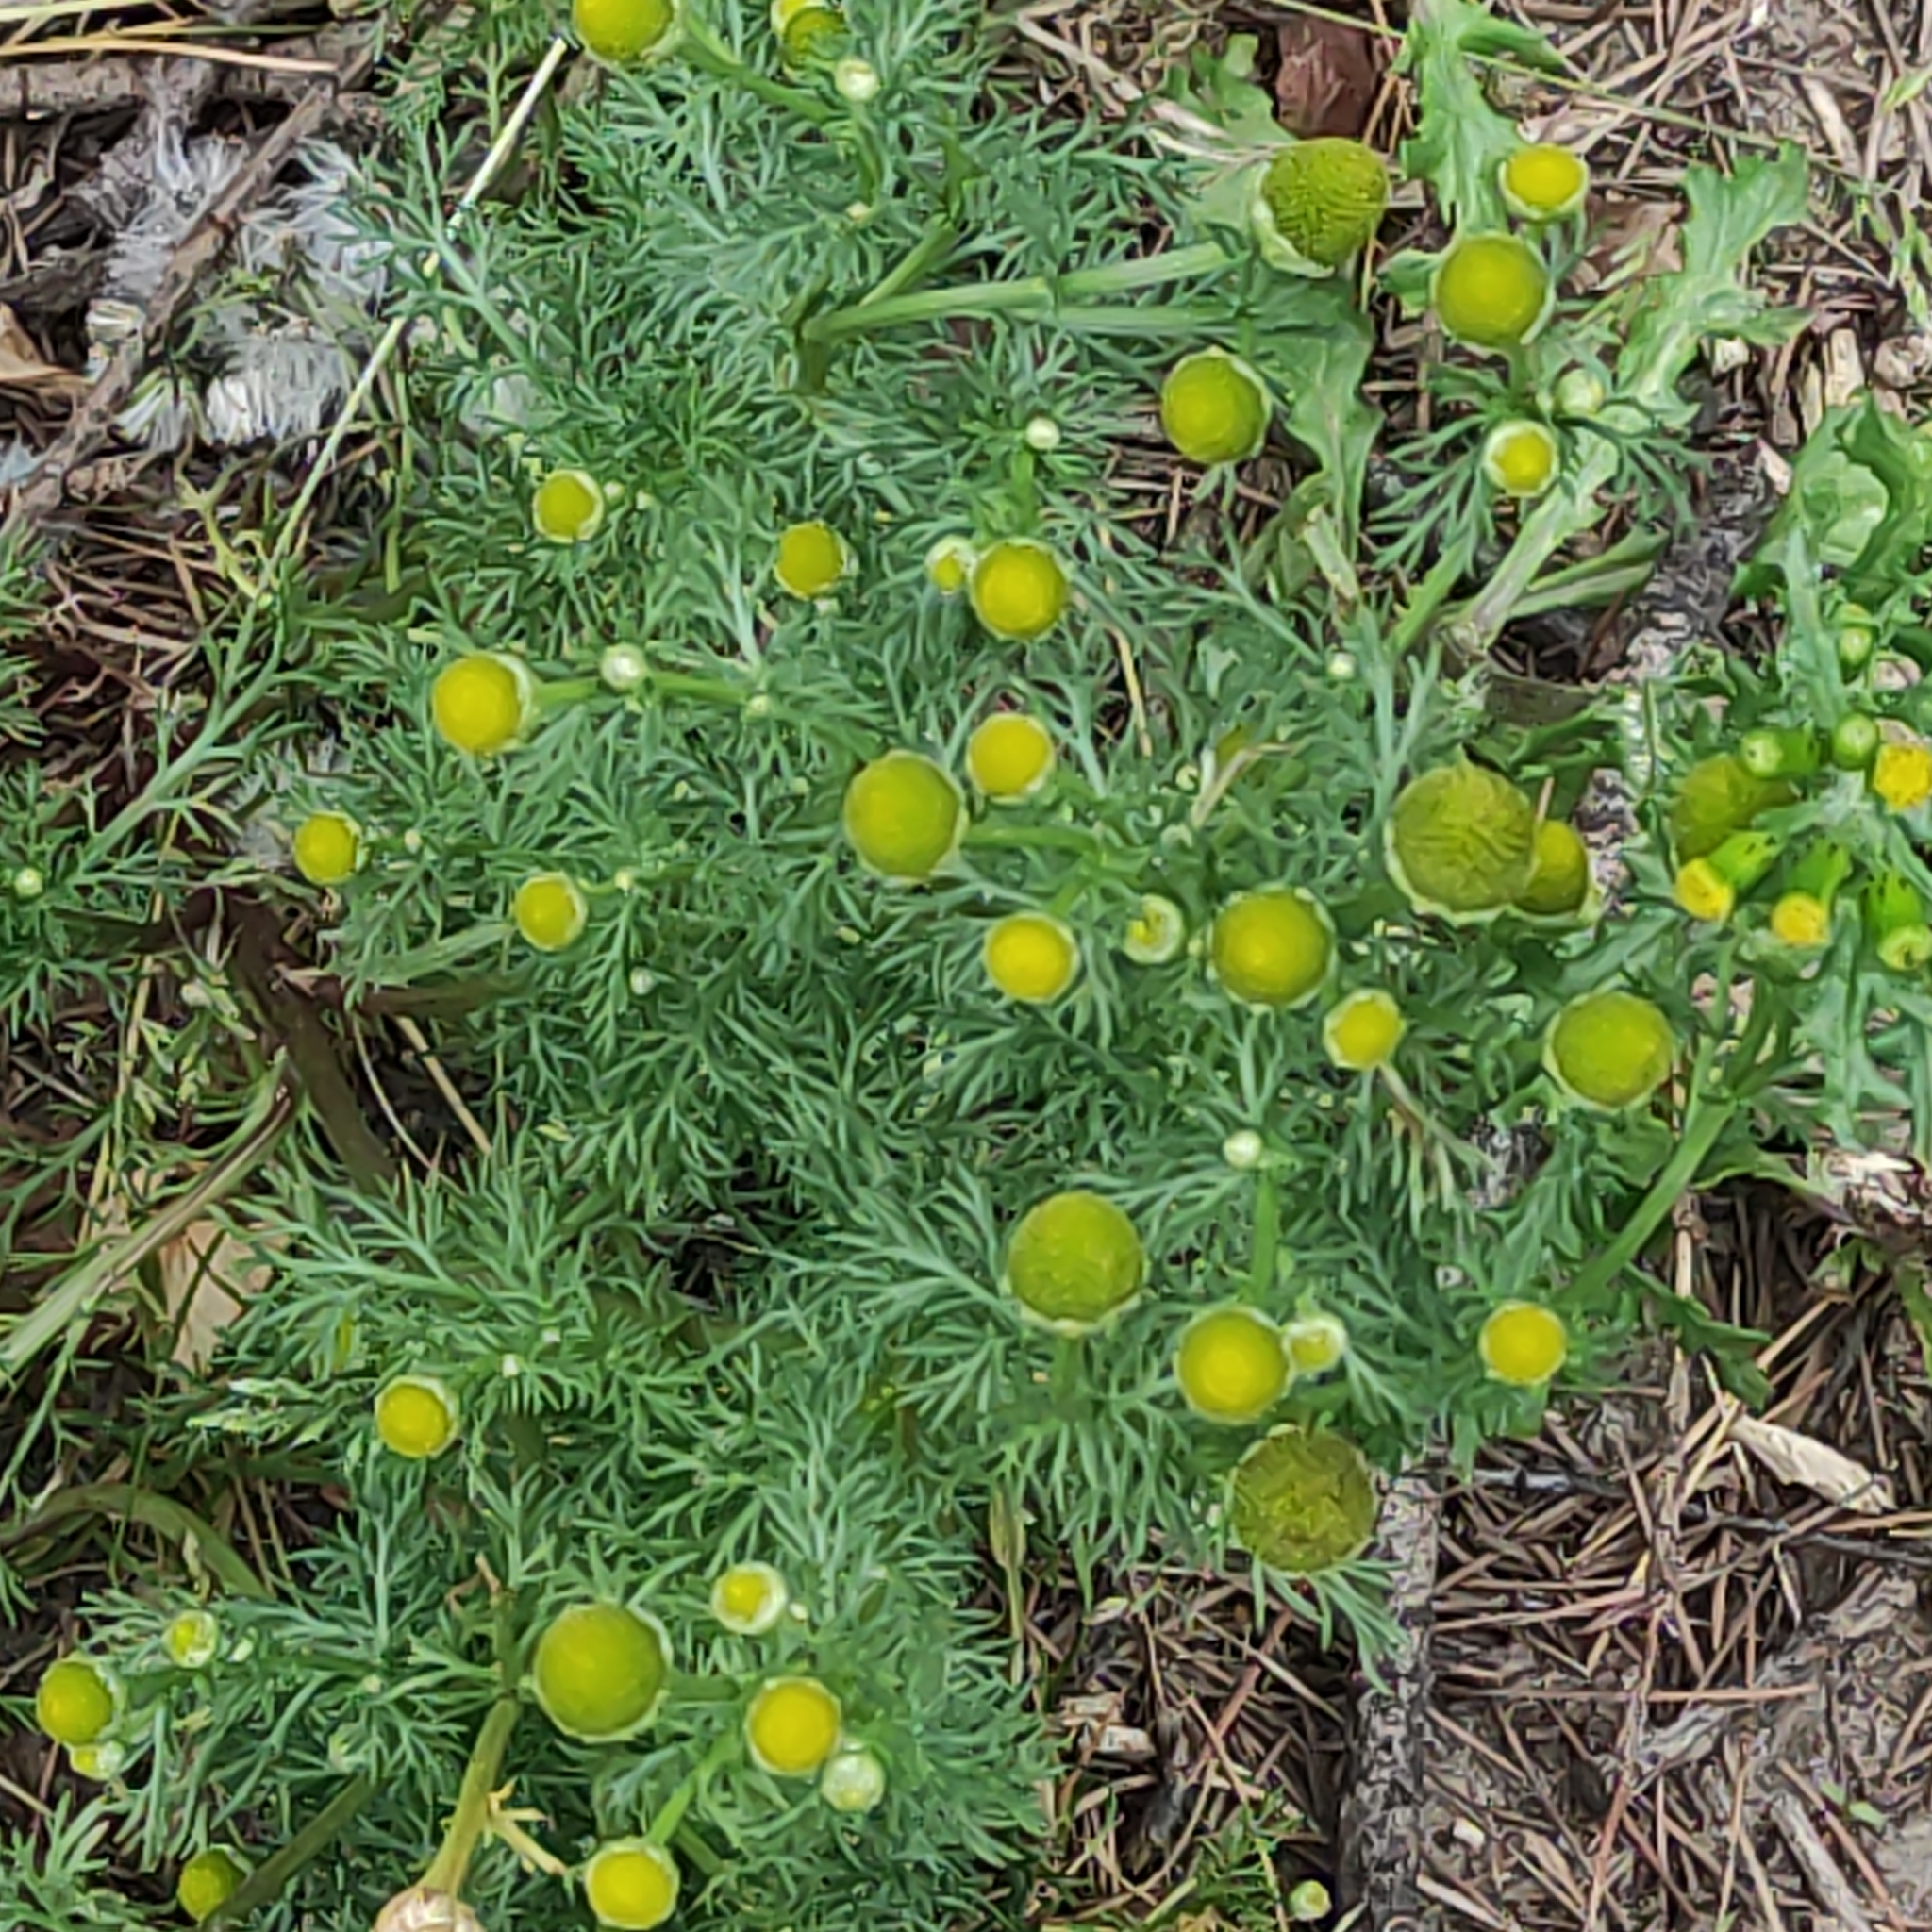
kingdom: Plantae
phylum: Tracheophyta
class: Magnoliopsida
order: Asterales
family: Asteraceae
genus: Matricaria
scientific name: Matricaria discoidea
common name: Disc mayweed
